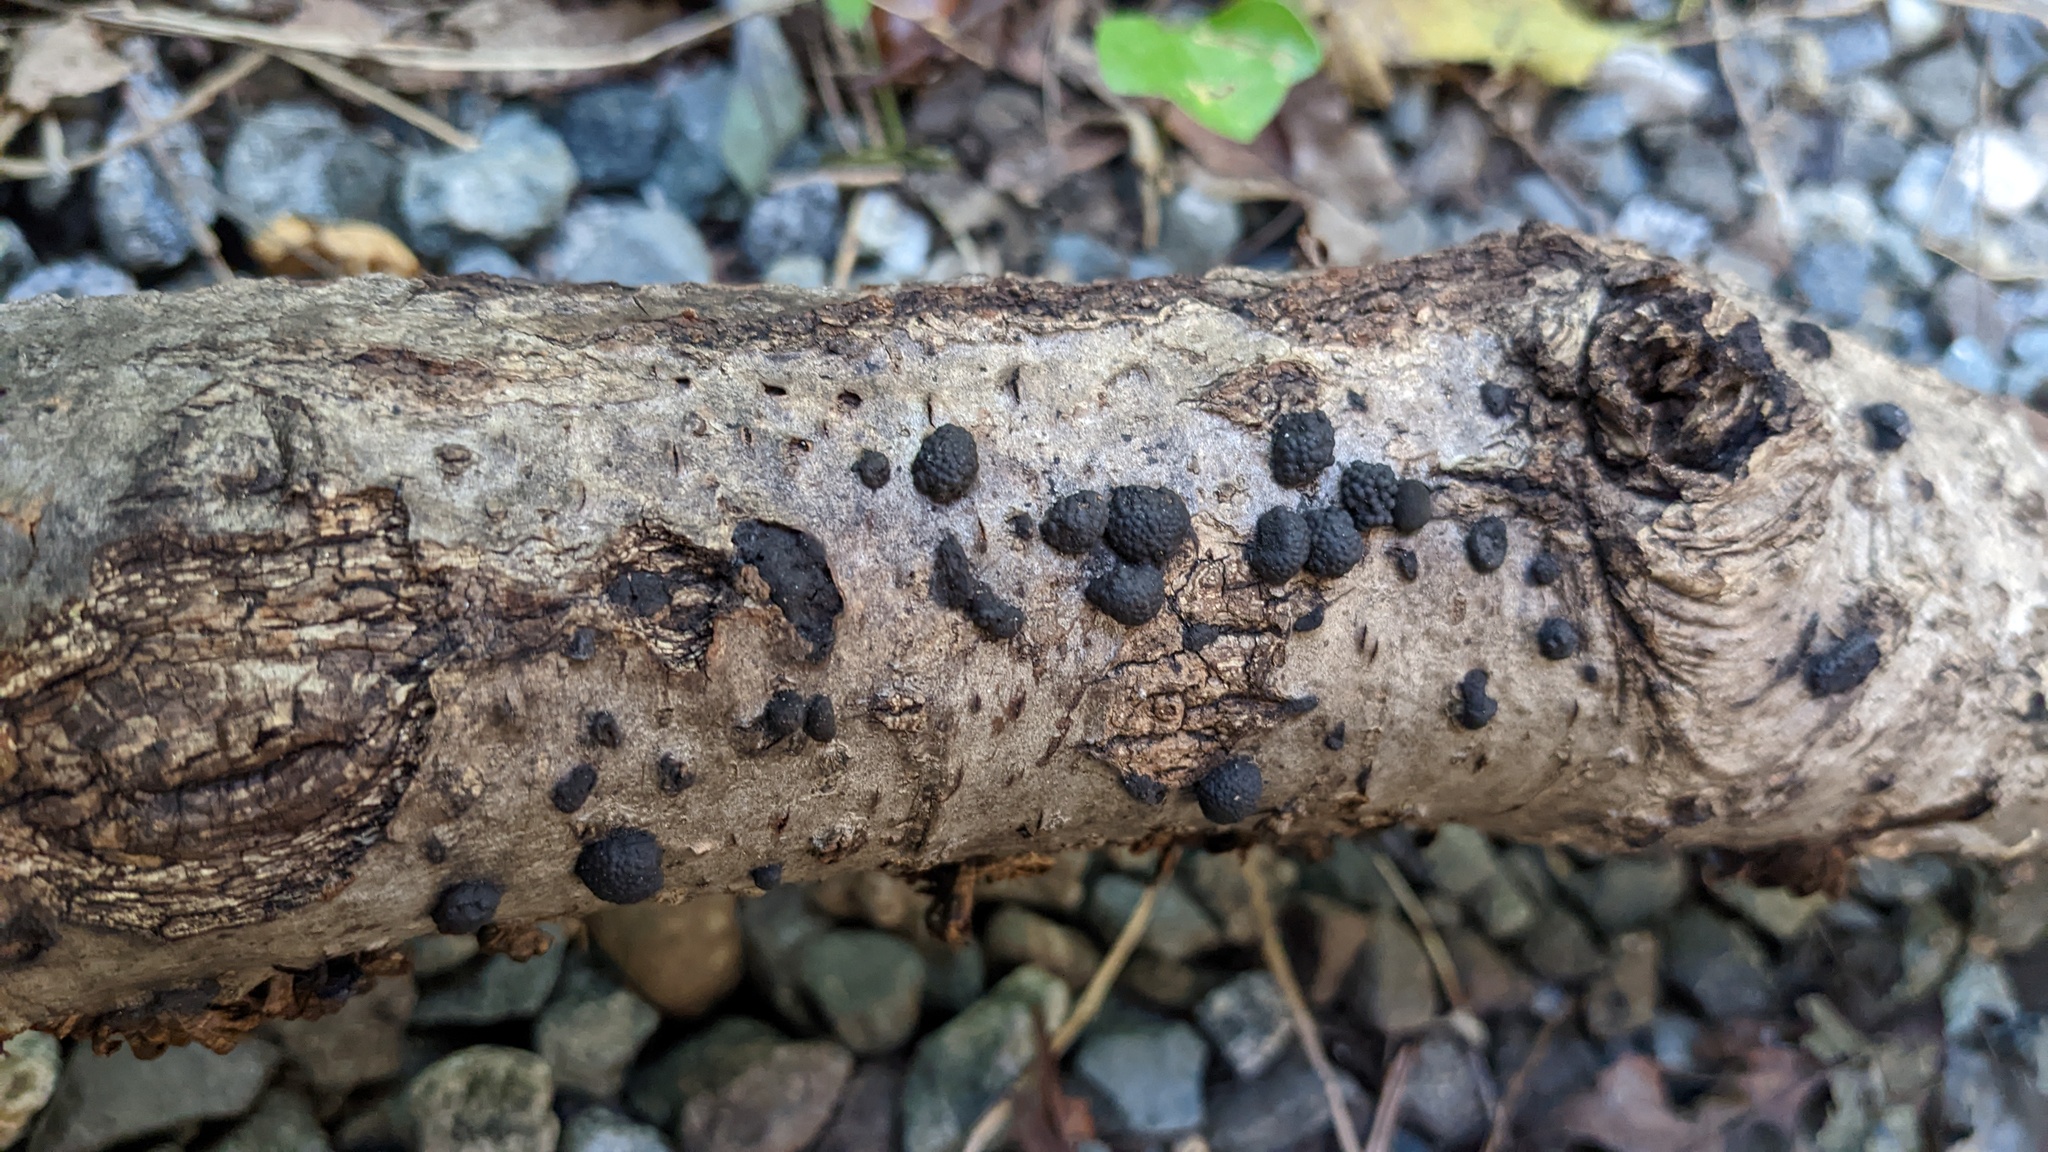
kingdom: Fungi
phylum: Ascomycota
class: Sordariomycetes
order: Xylariales
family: Hypoxylaceae
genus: Annulohypoxylon
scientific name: Annulohypoxylon truncatum
